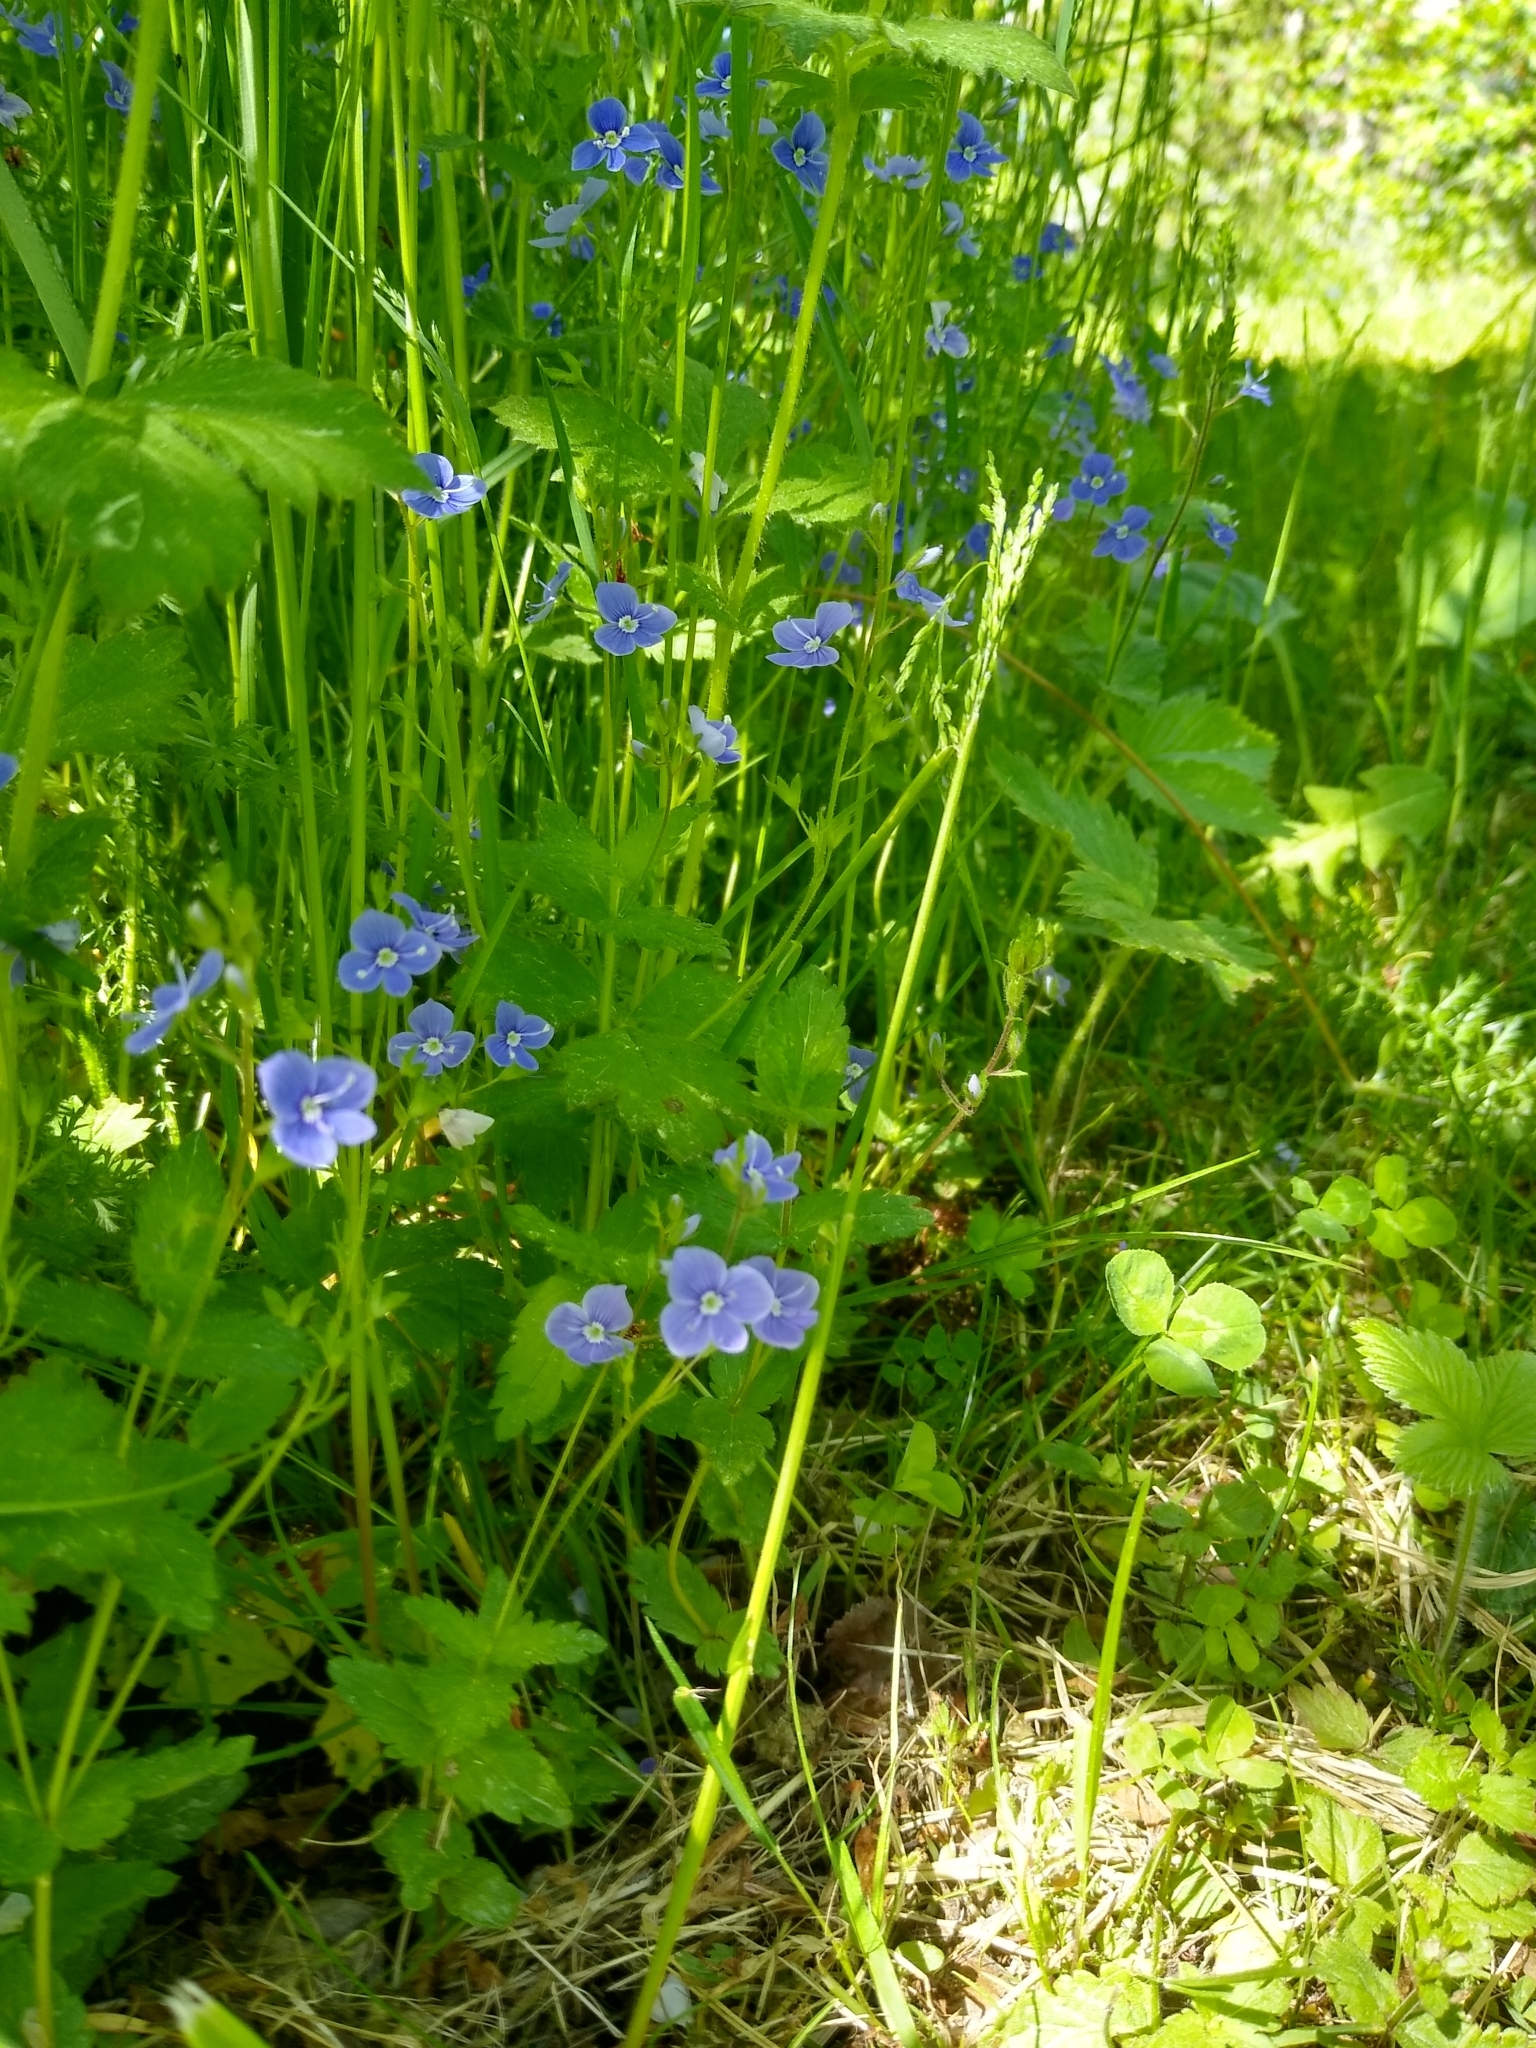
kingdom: Plantae
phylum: Tracheophyta
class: Magnoliopsida
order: Lamiales
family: Plantaginaceae
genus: Veronica
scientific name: Veronica chamaedrys
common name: Germander speedwell
